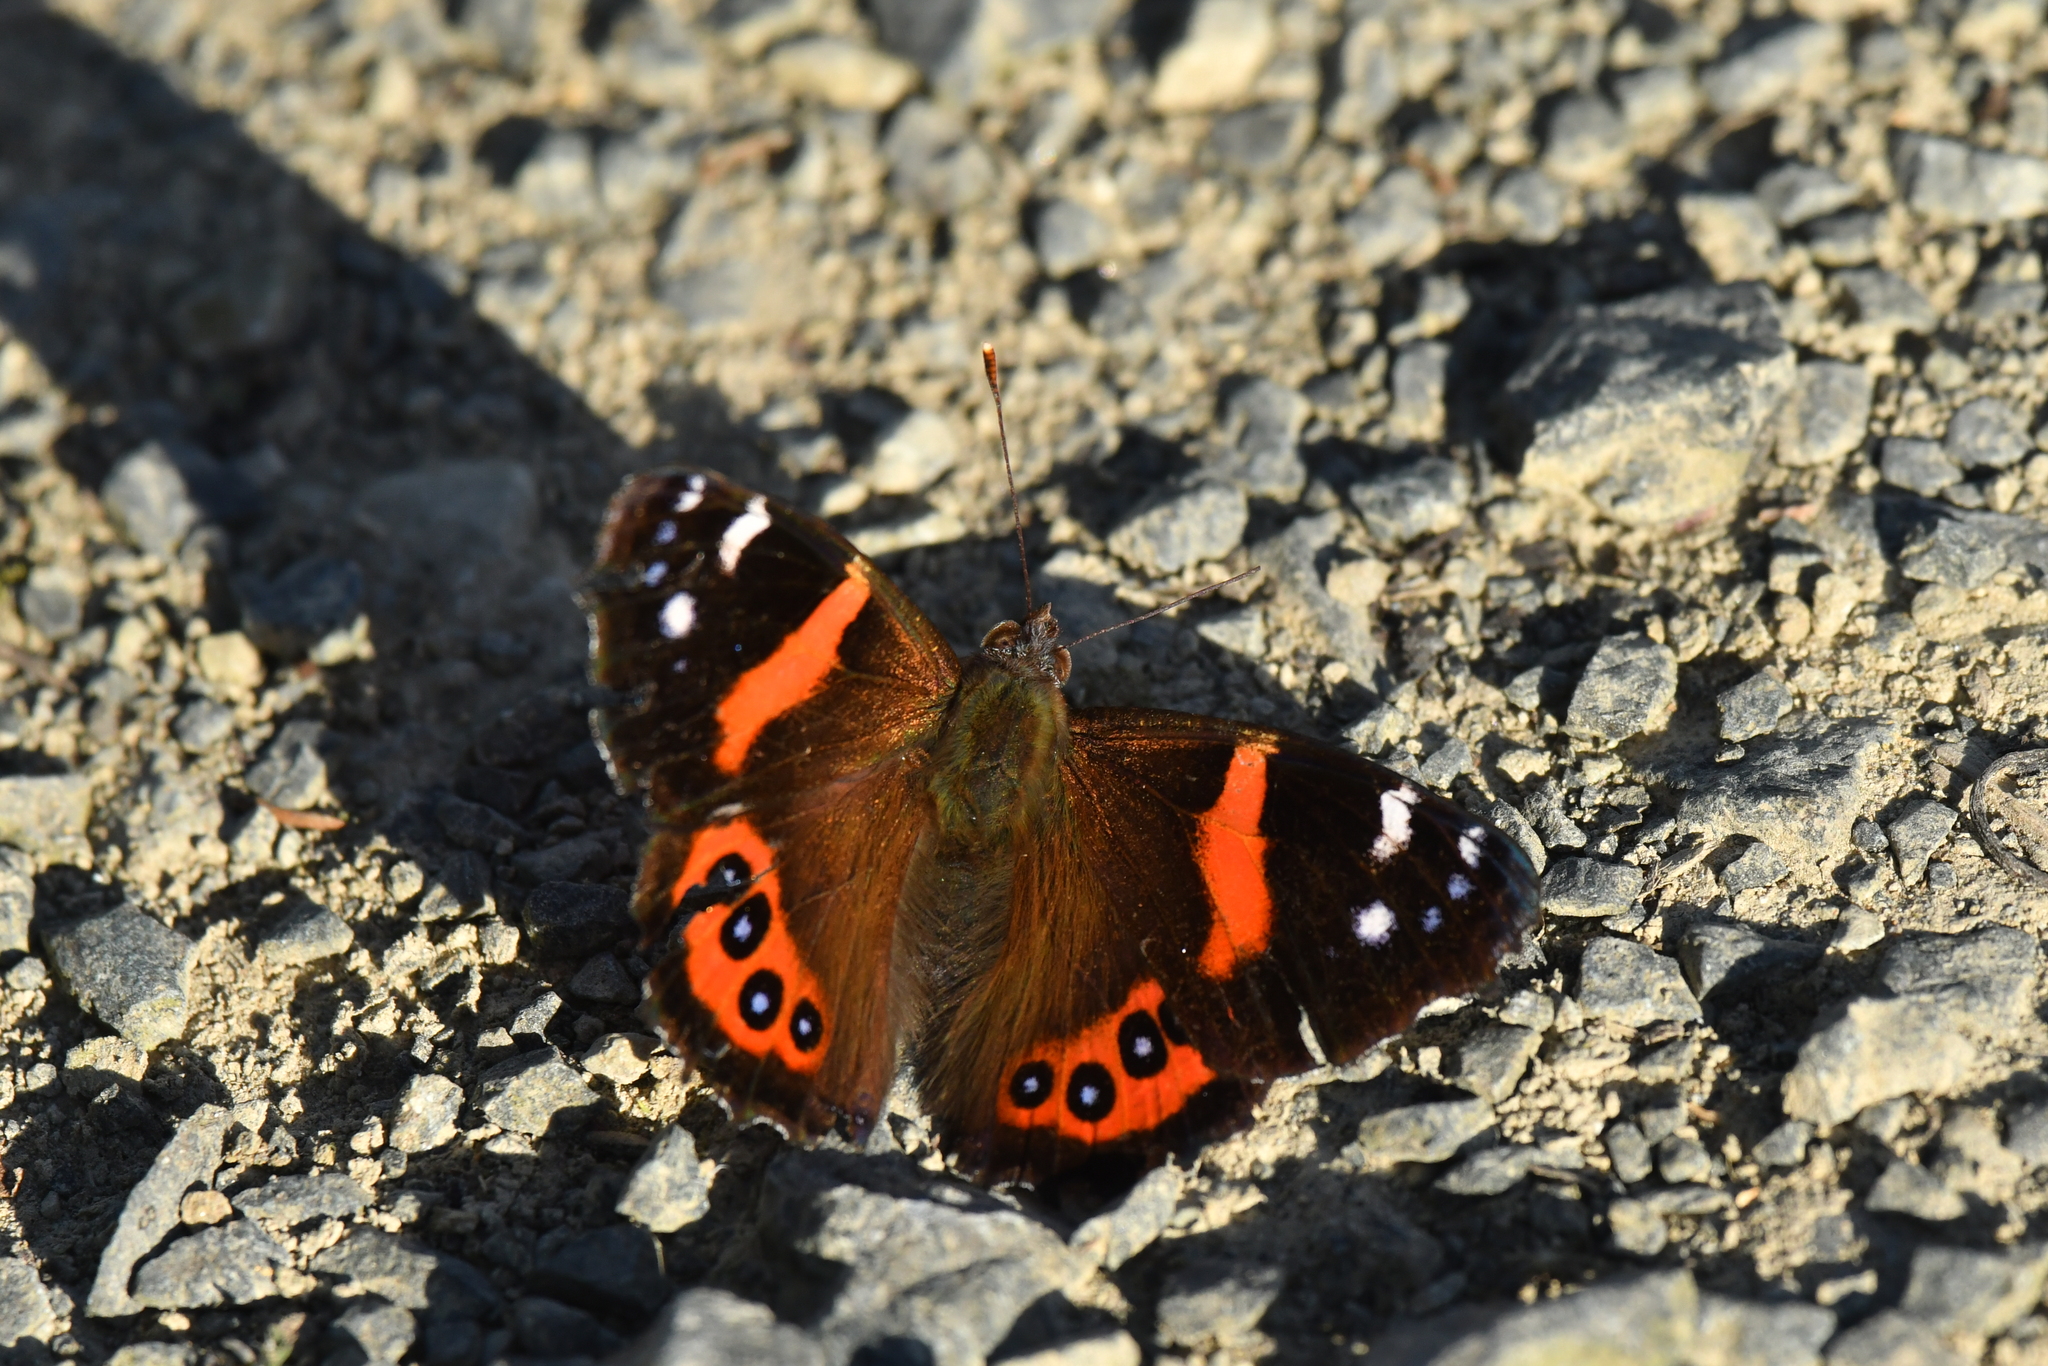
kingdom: Animalia
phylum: Arthropoda
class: Insecta
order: Lepidoptera
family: Nymphalidae
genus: Vanessa
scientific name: Vanessa gonerilla
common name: New zealand red admiral
